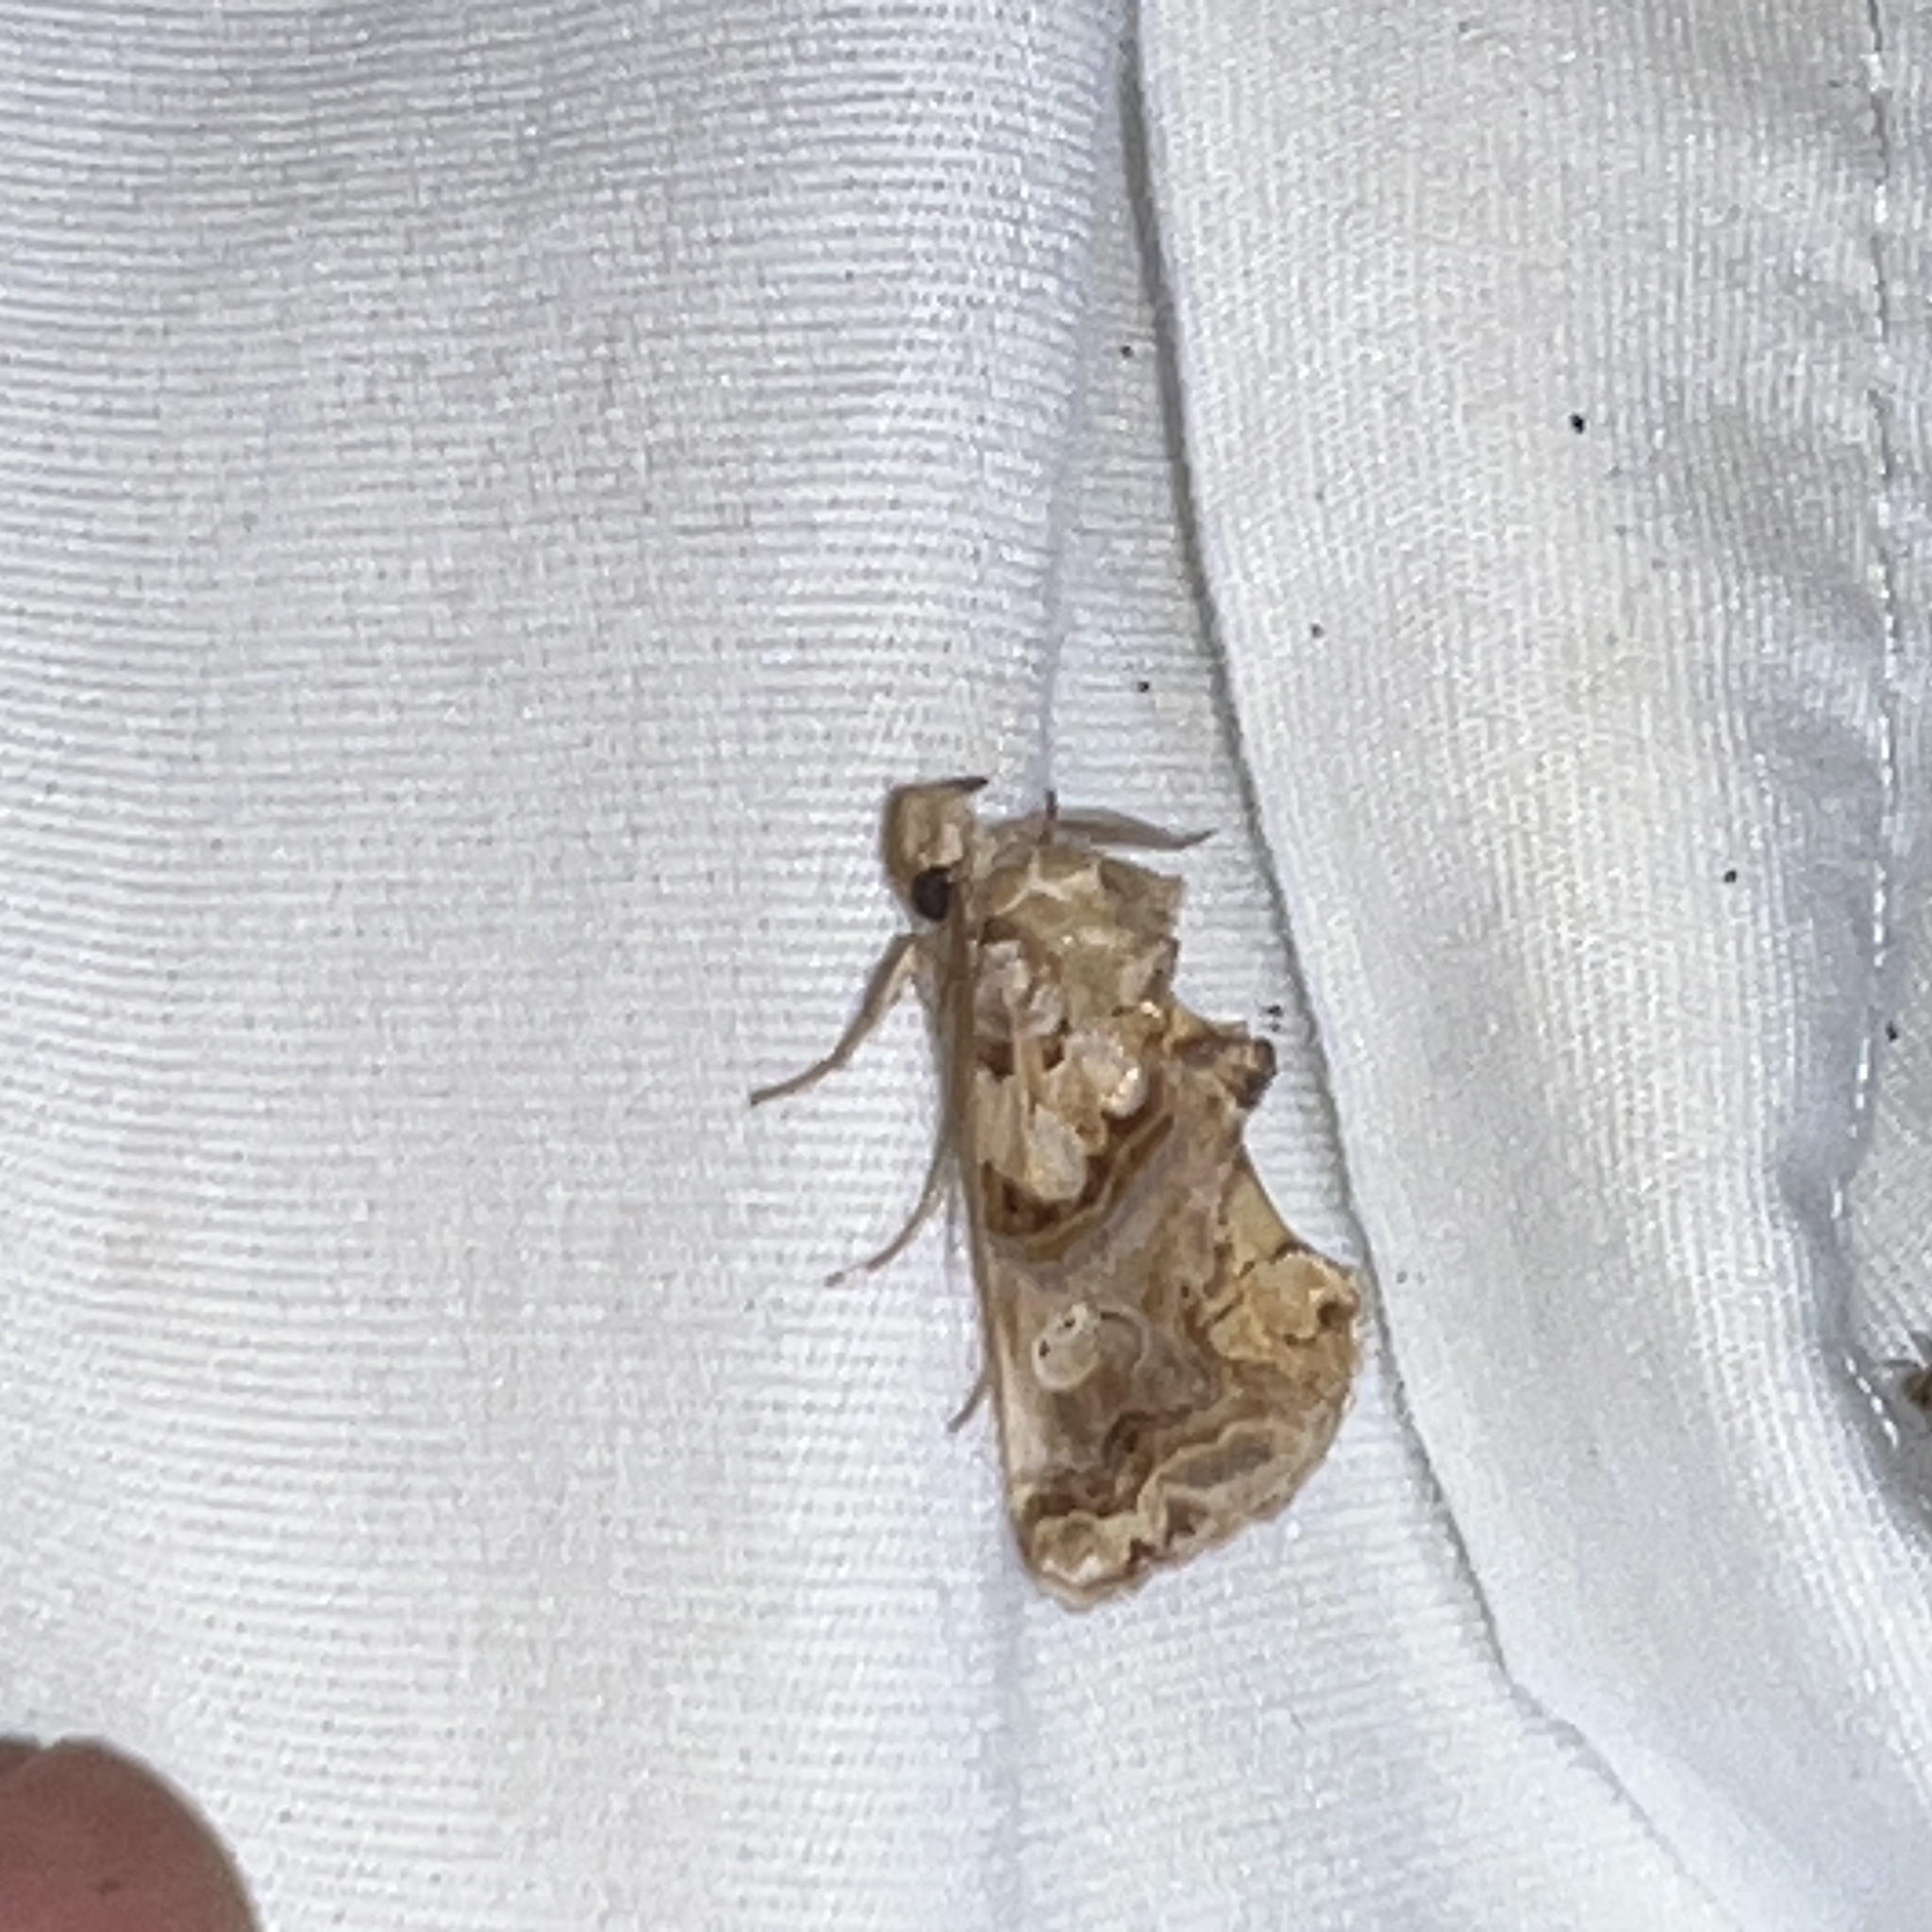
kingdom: Animalia
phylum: Arthropoda
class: Insecta
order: Lepidoptera
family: Erebidae
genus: Plusiodonta
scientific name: Plusiodonta compressipalpis
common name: Moonseed moth
